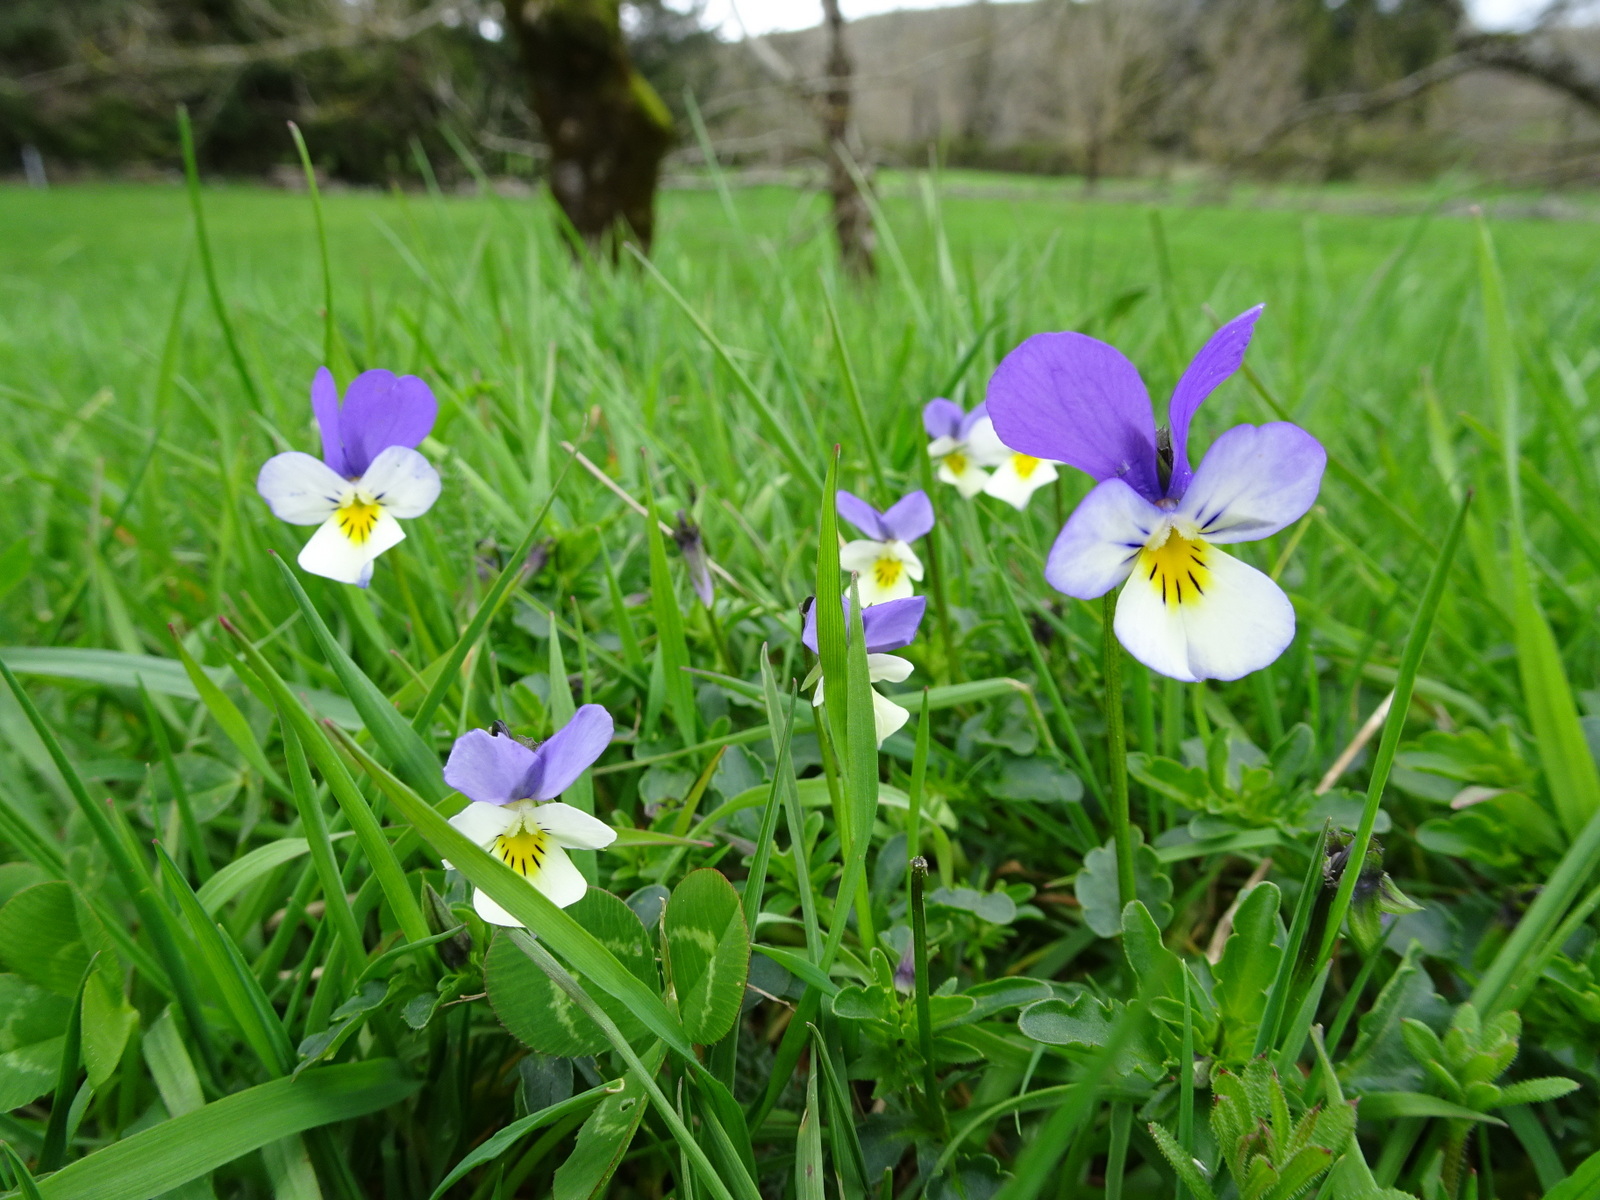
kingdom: Plantae
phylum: Tracheophyta
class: Magnoliopsida
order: Malpighiales
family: Violaceae
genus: Viola
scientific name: Viola tricolor
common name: Pansy
